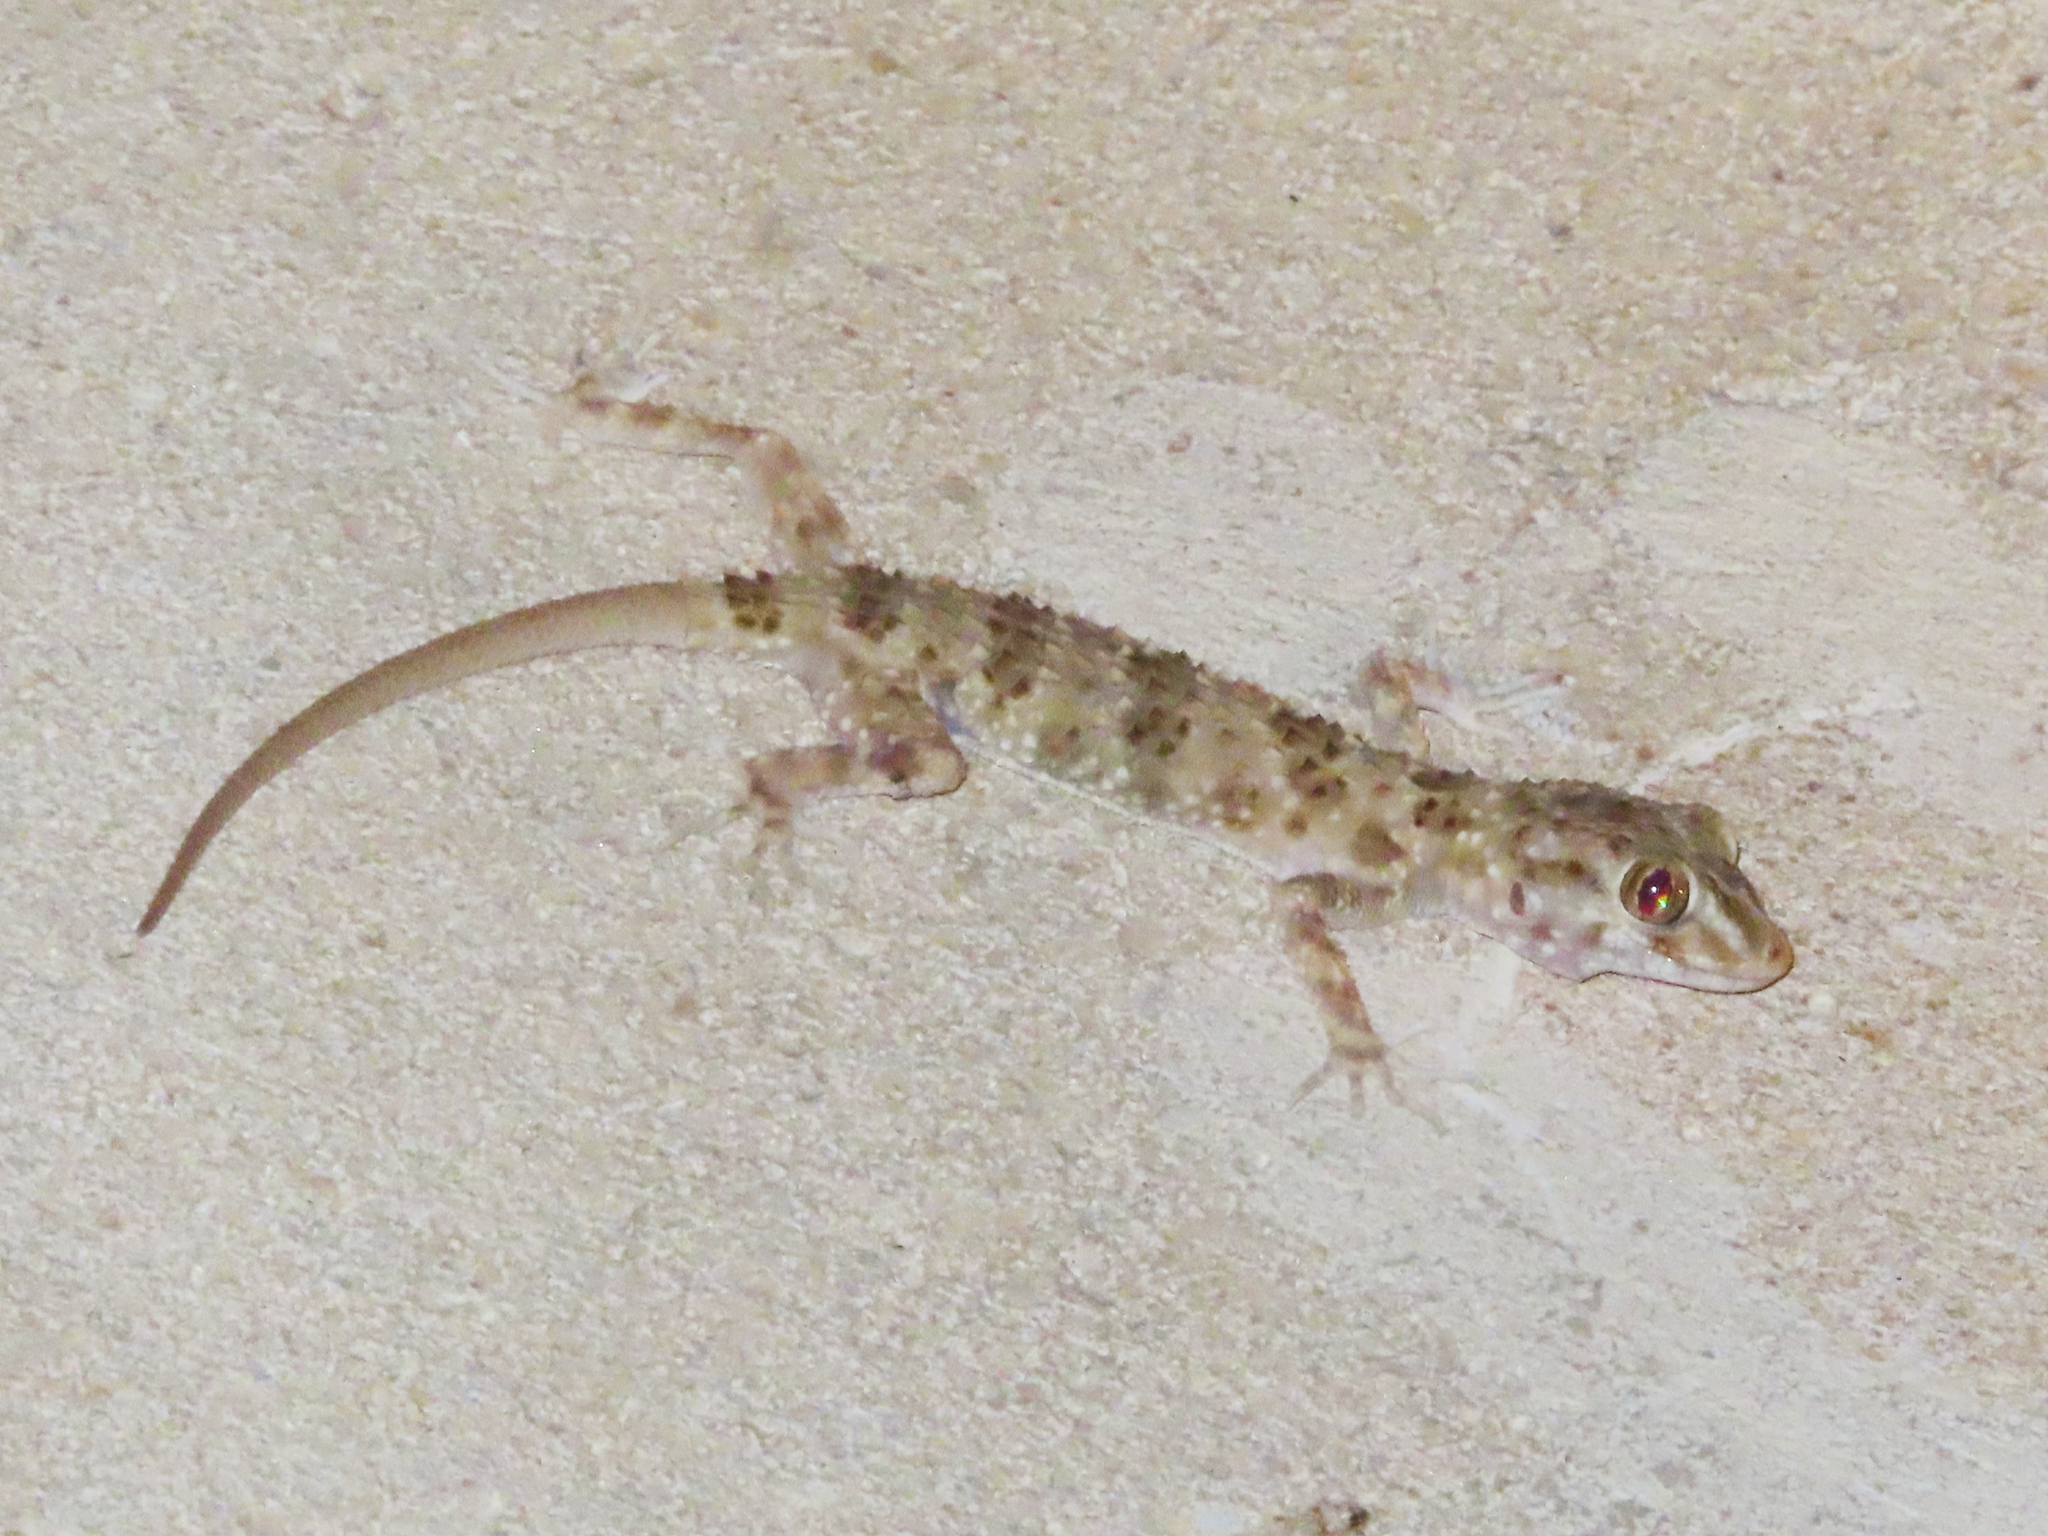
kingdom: Animalia
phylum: Chordata
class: Squamata
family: Gekkonidae
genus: Tenuidactylus
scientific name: Tenuidactylus caspius
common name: Caspian bent-toed gecko
